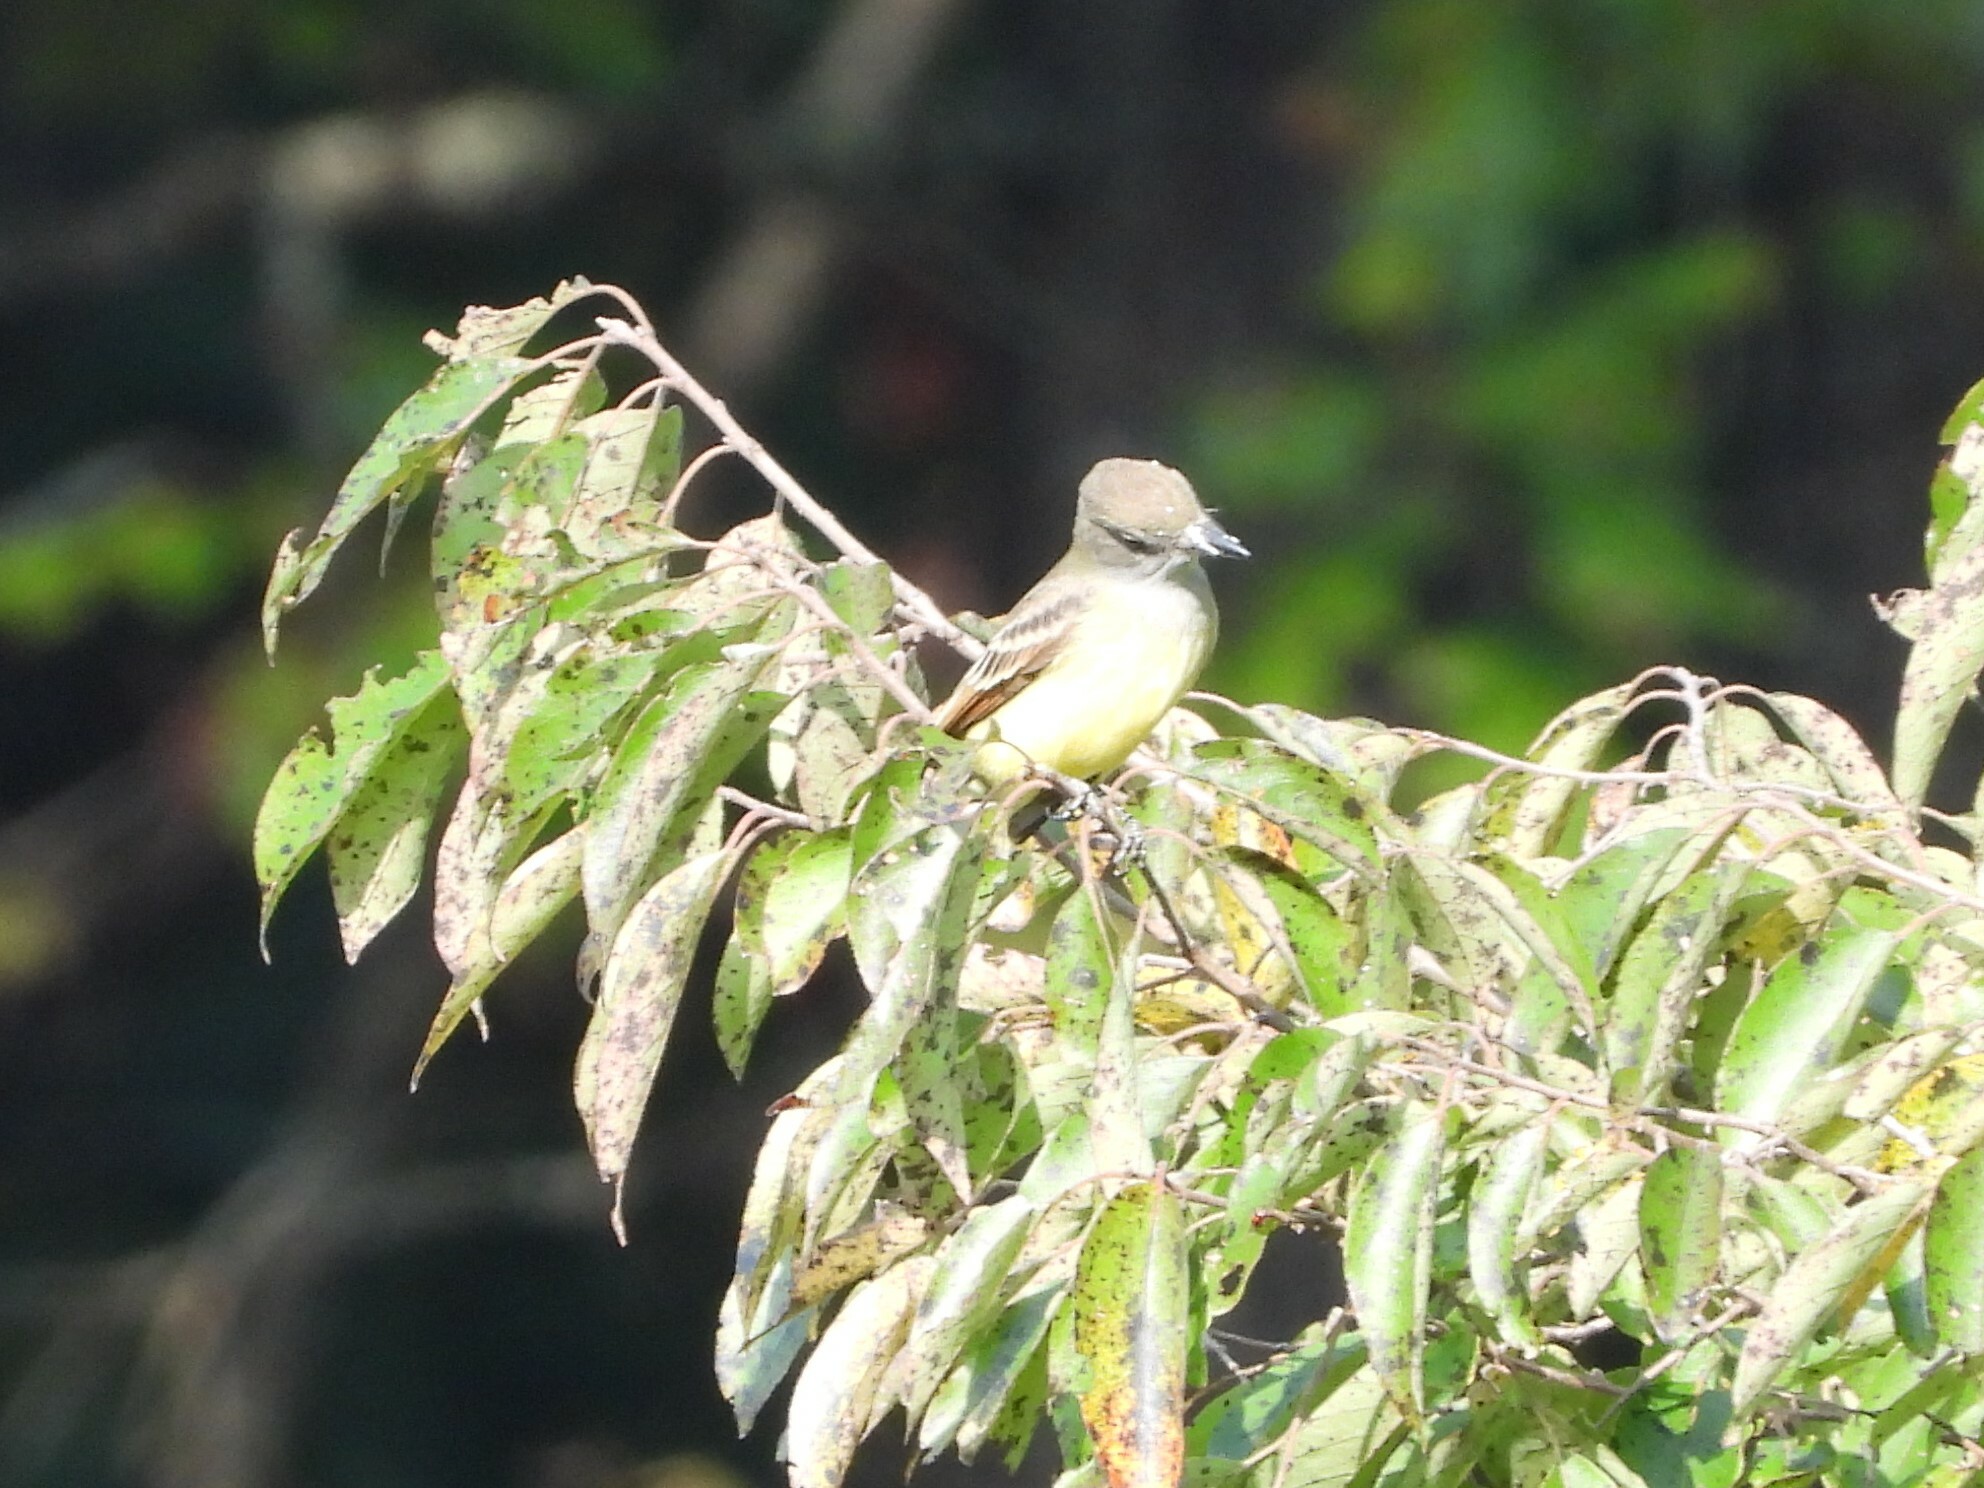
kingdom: Animalia
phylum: Chordata
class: Aves
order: Passeriformes
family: Tyrannidae
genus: Myiarchus
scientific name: Myiarchus crinitus
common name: Great crested flycatcher
